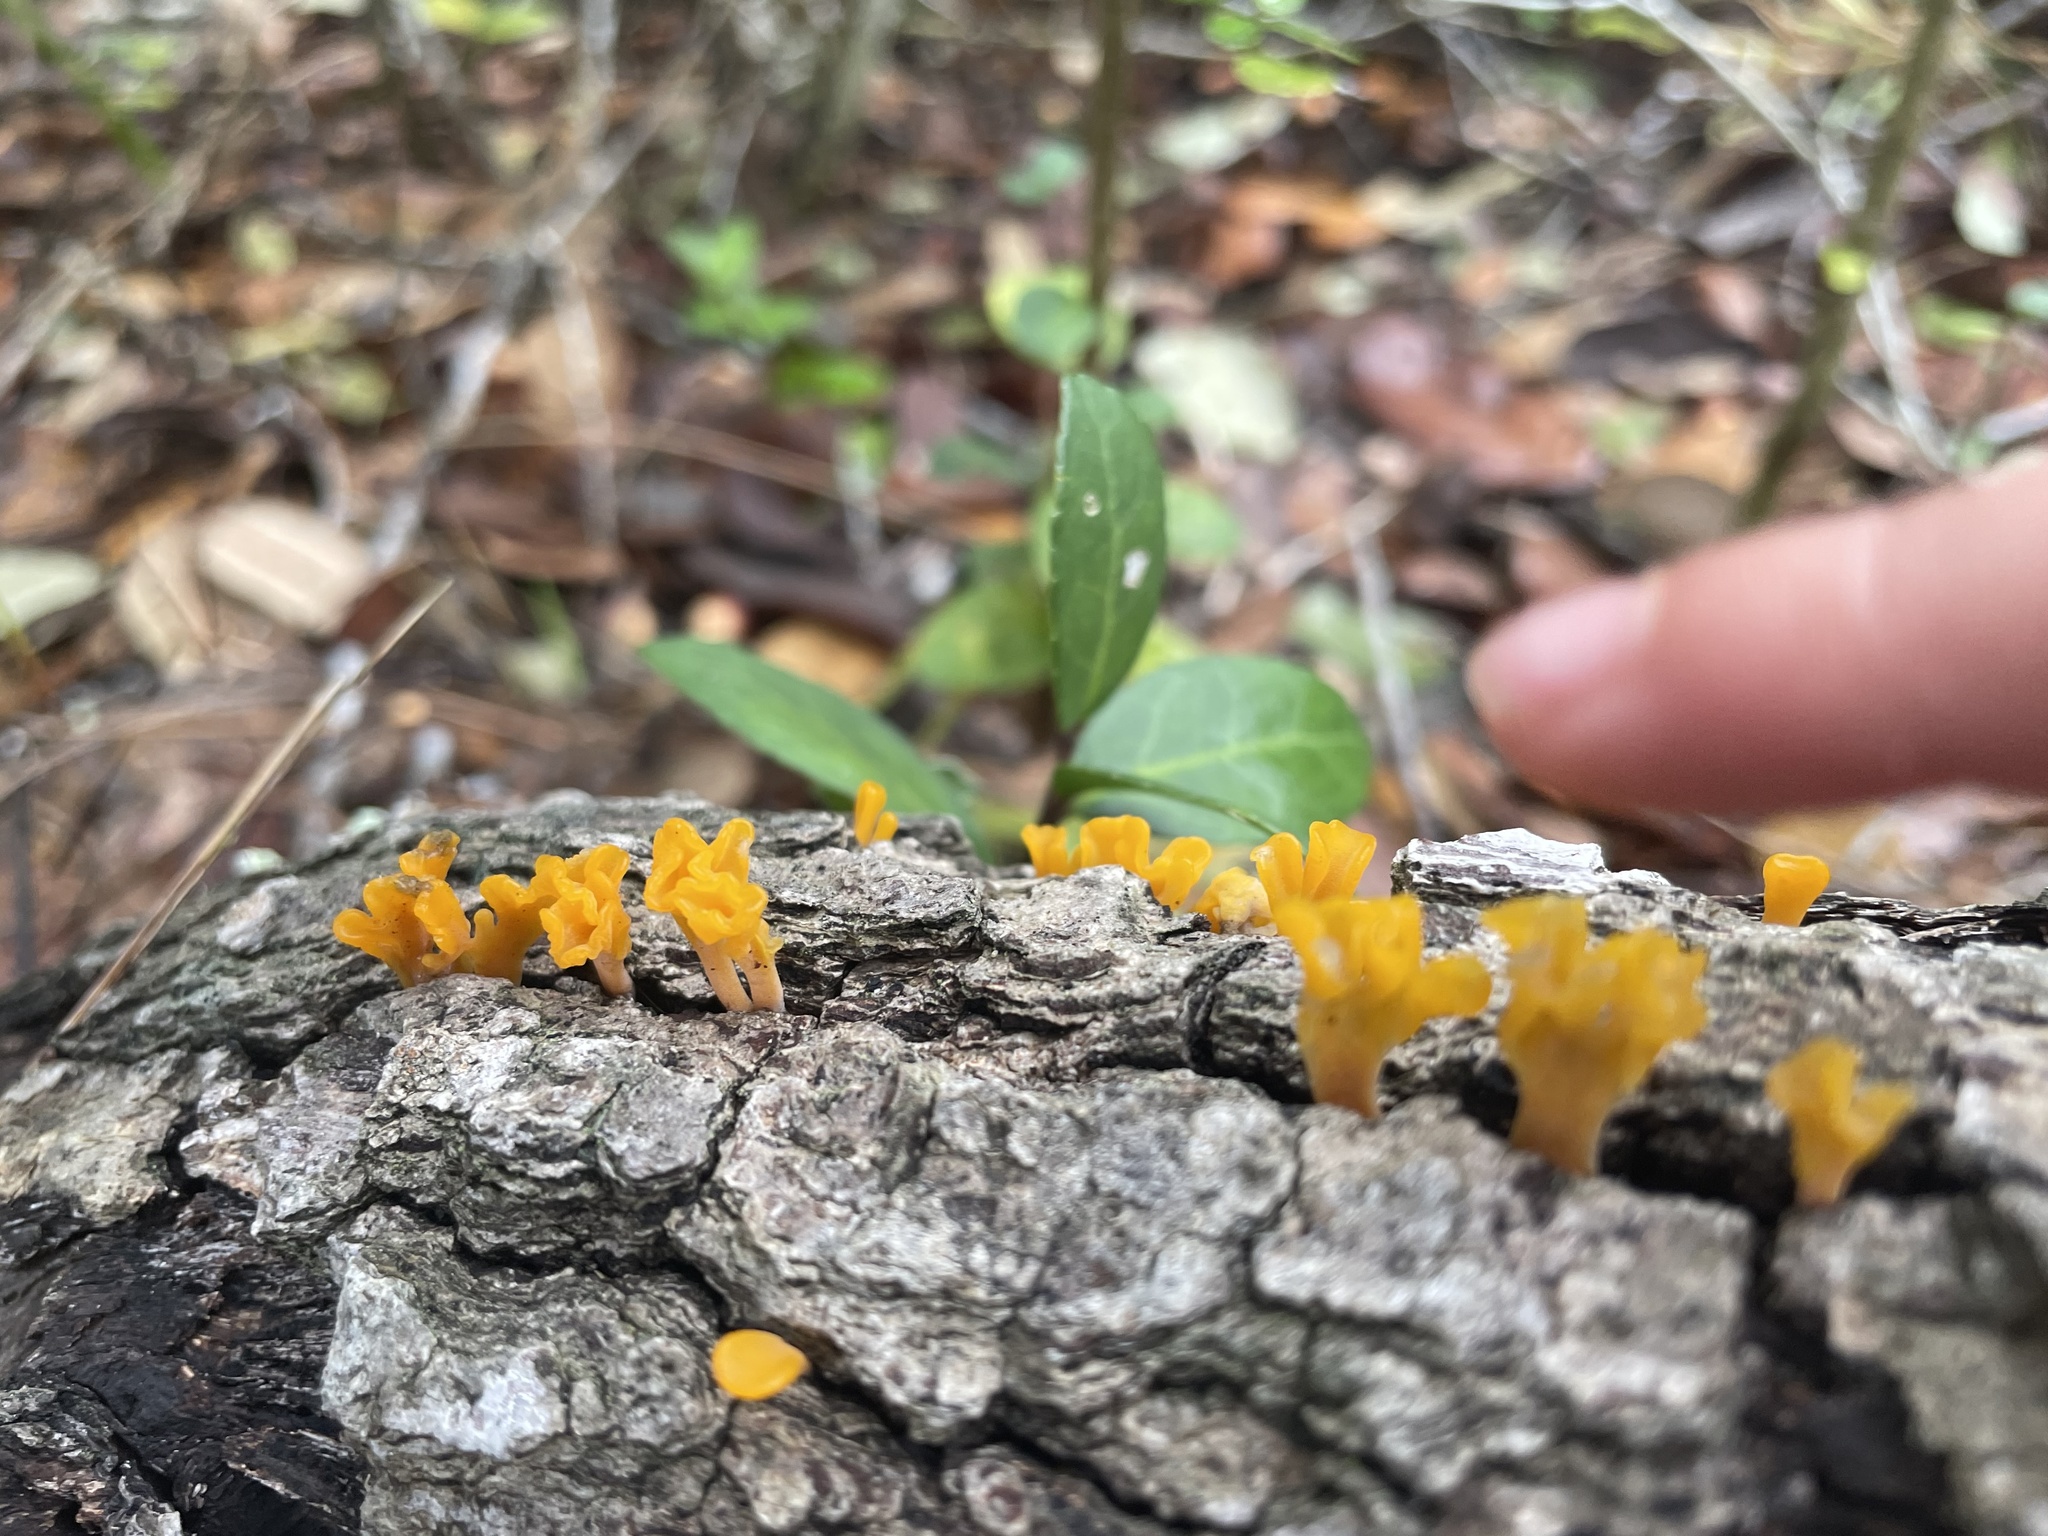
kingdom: Fungi
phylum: Basidiomycota
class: Dacrymycetes
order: Dacrymycetales
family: Dacrymycetaceae
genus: Dacrymyces
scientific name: Dacrymyces spathularius
